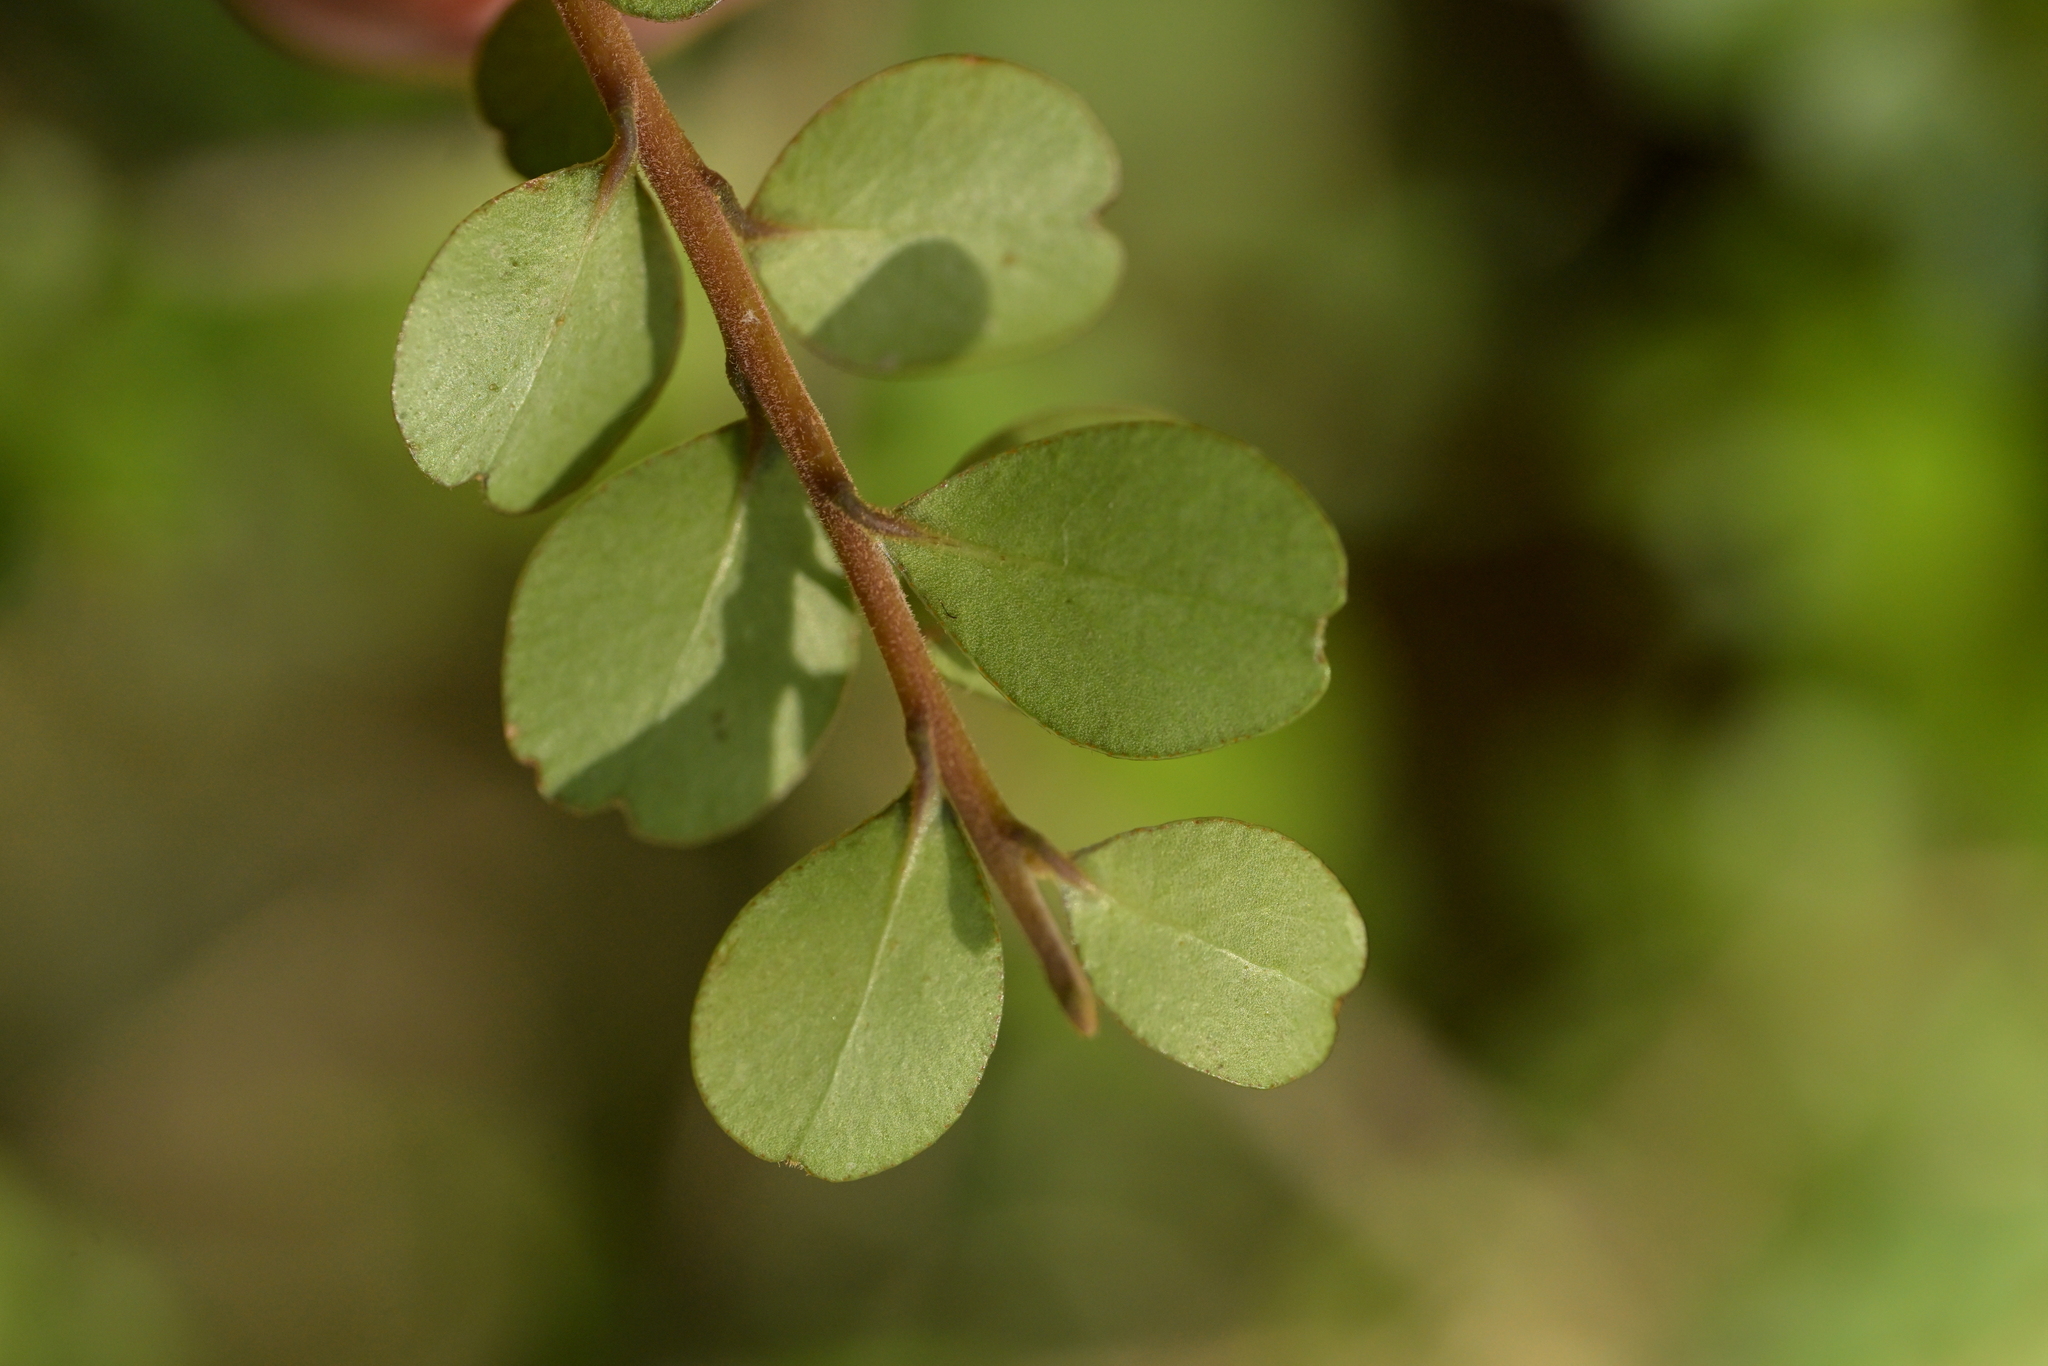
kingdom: Plantae
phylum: Tracheophyta
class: Magnoliopsida
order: Ericales
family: Primulaceae
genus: Myrsine
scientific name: Myrsine umbricola
